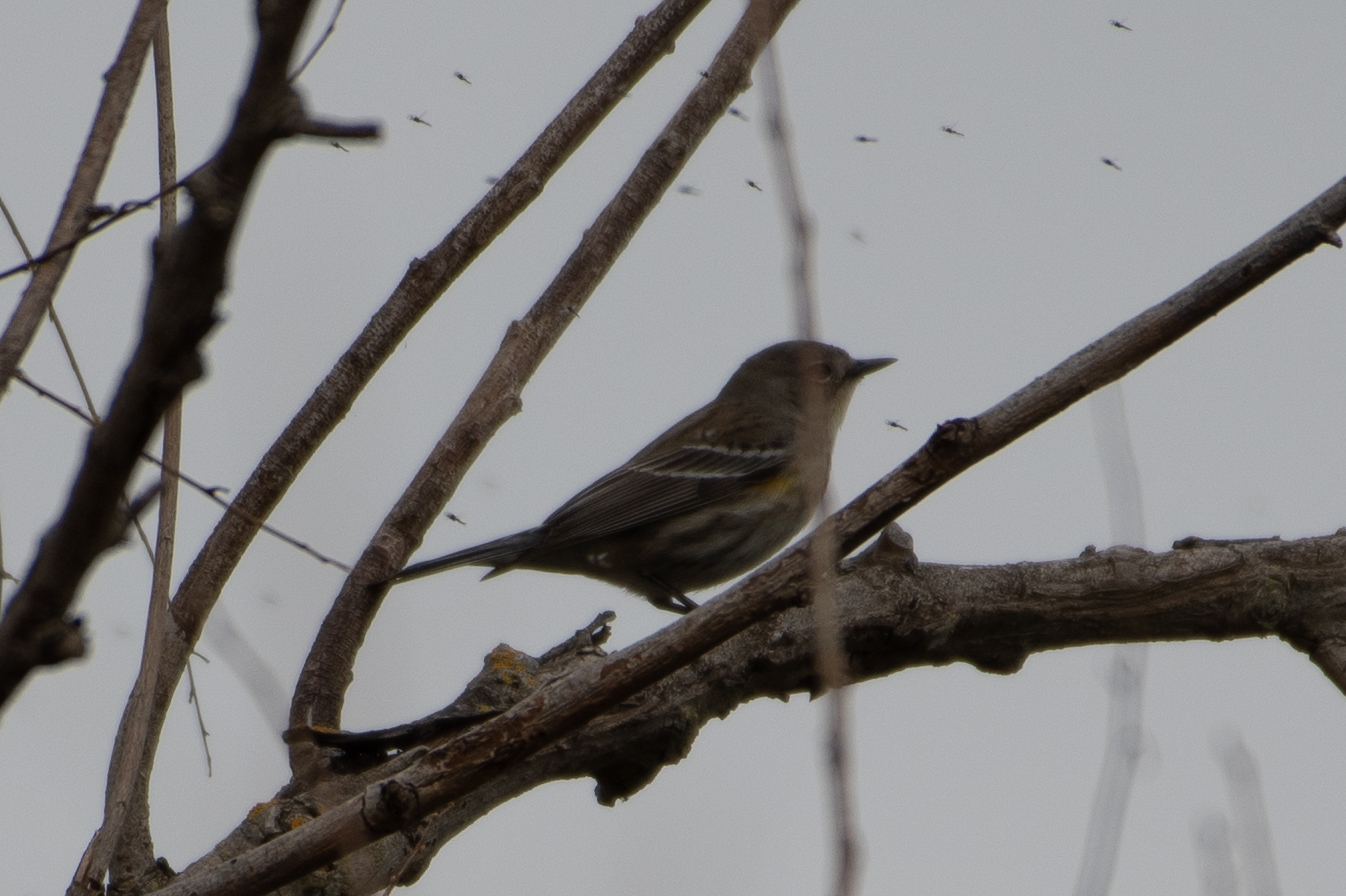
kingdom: Animalia
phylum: Chordata
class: Aves
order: Passeriformes
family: Parulidae
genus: Setophaga
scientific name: Setophaga coronata
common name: Myrtle warbler
